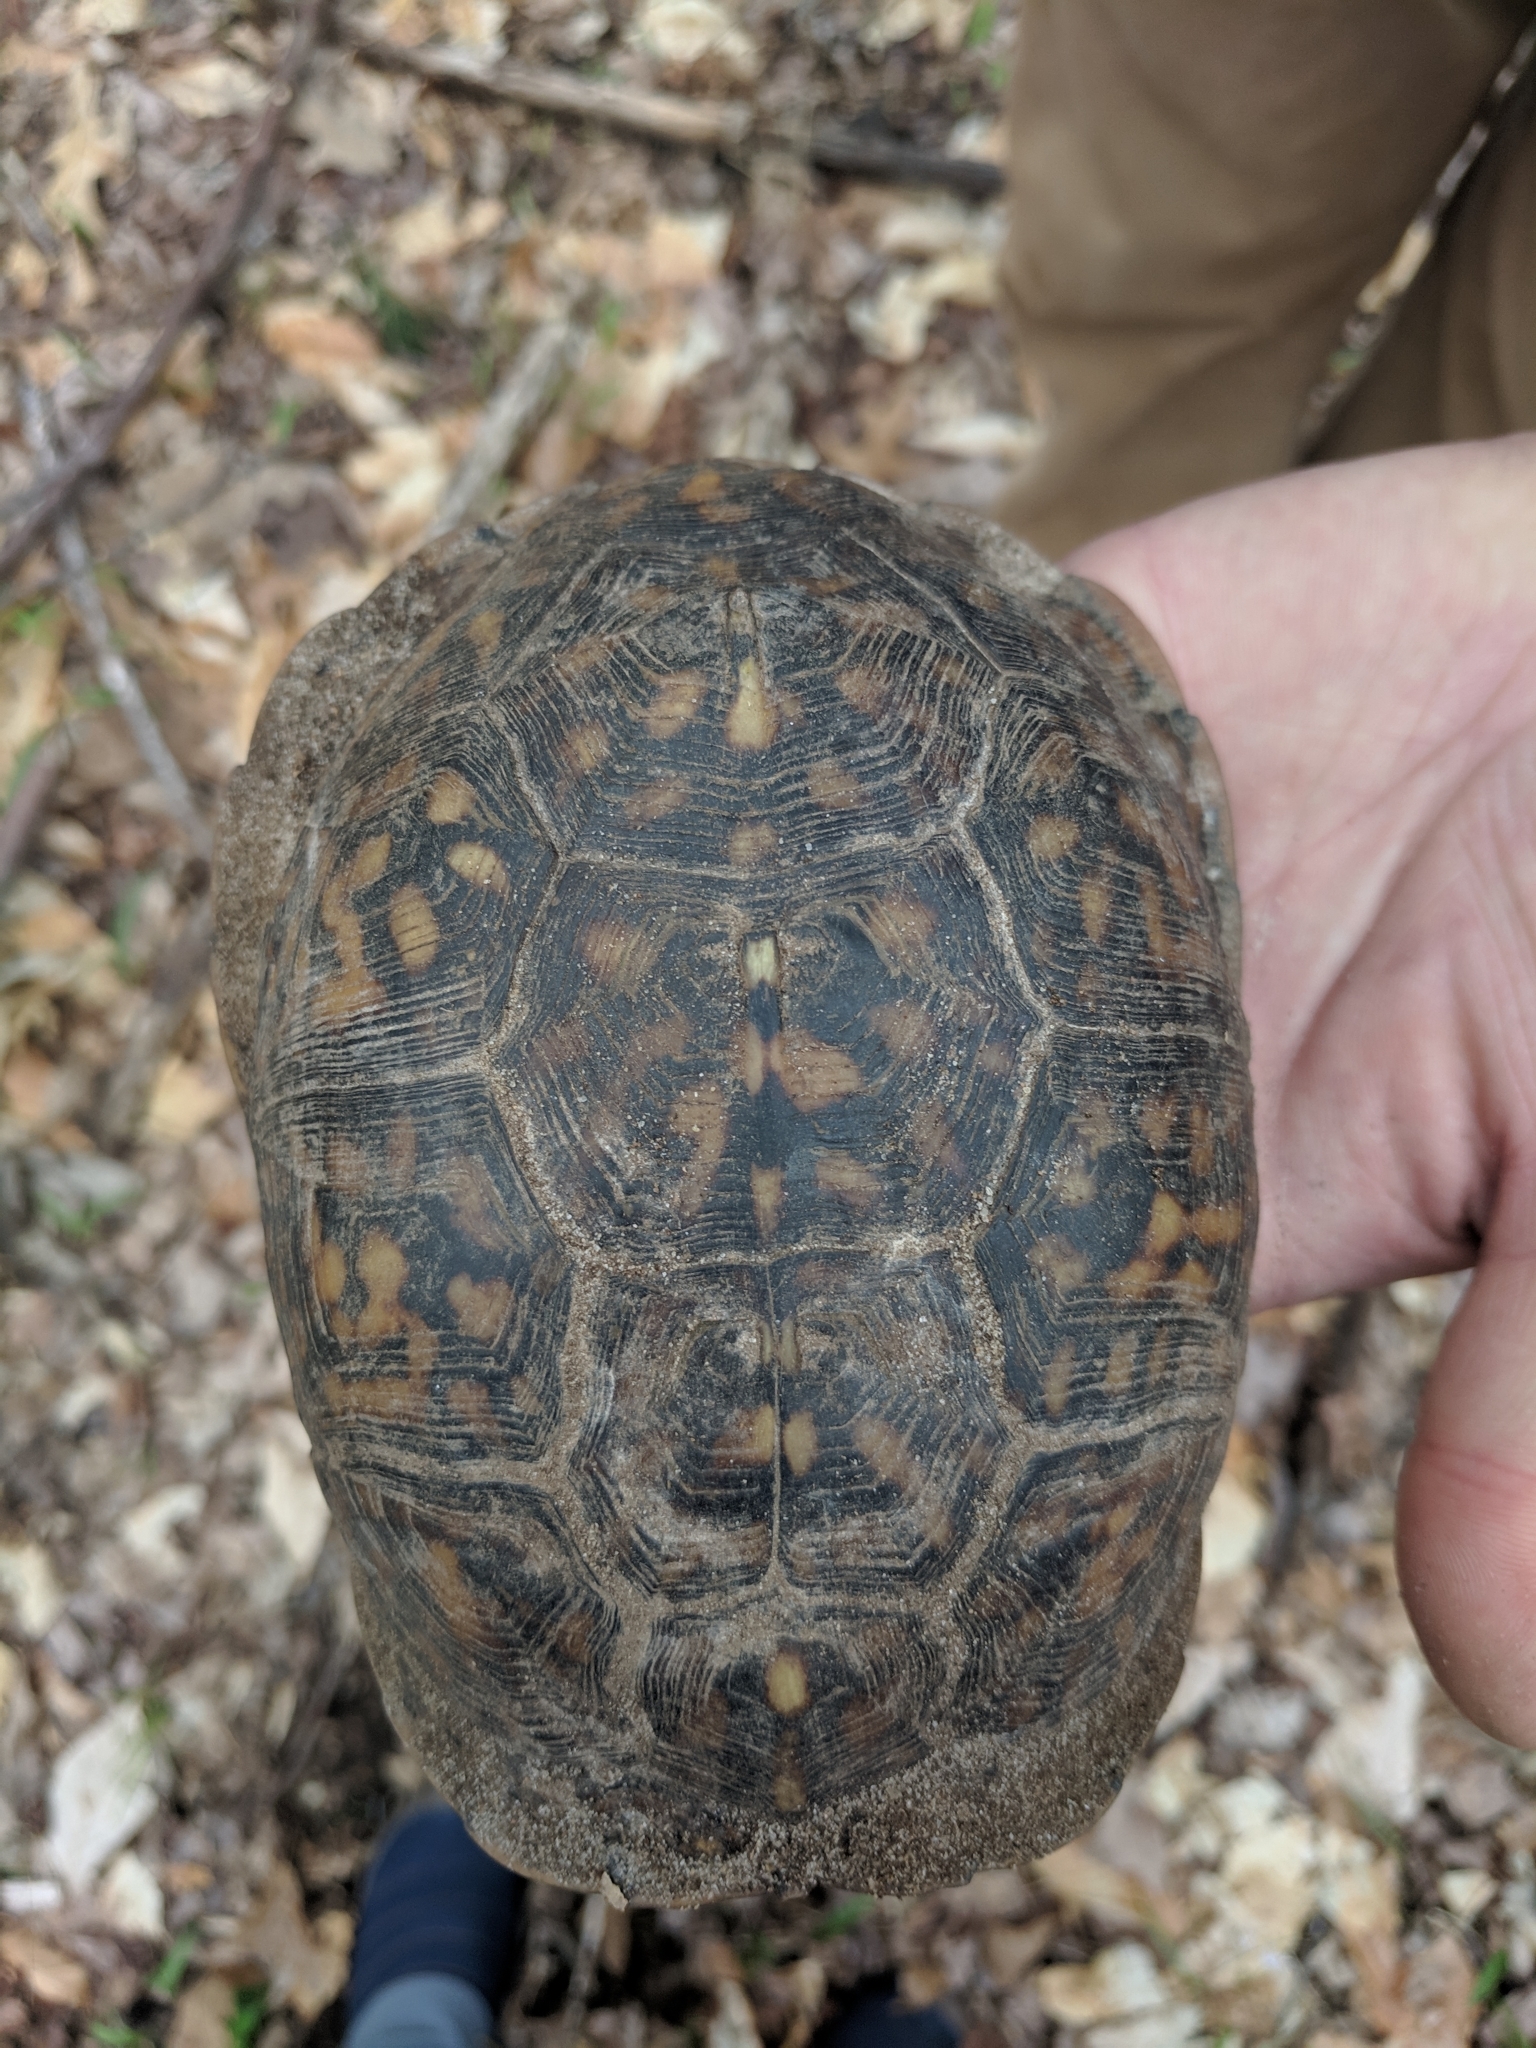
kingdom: Animalia
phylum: Chordata
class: Testudines
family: Emydidae
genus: Terrapene
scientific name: Terrapene carolina
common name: Common box turtle
